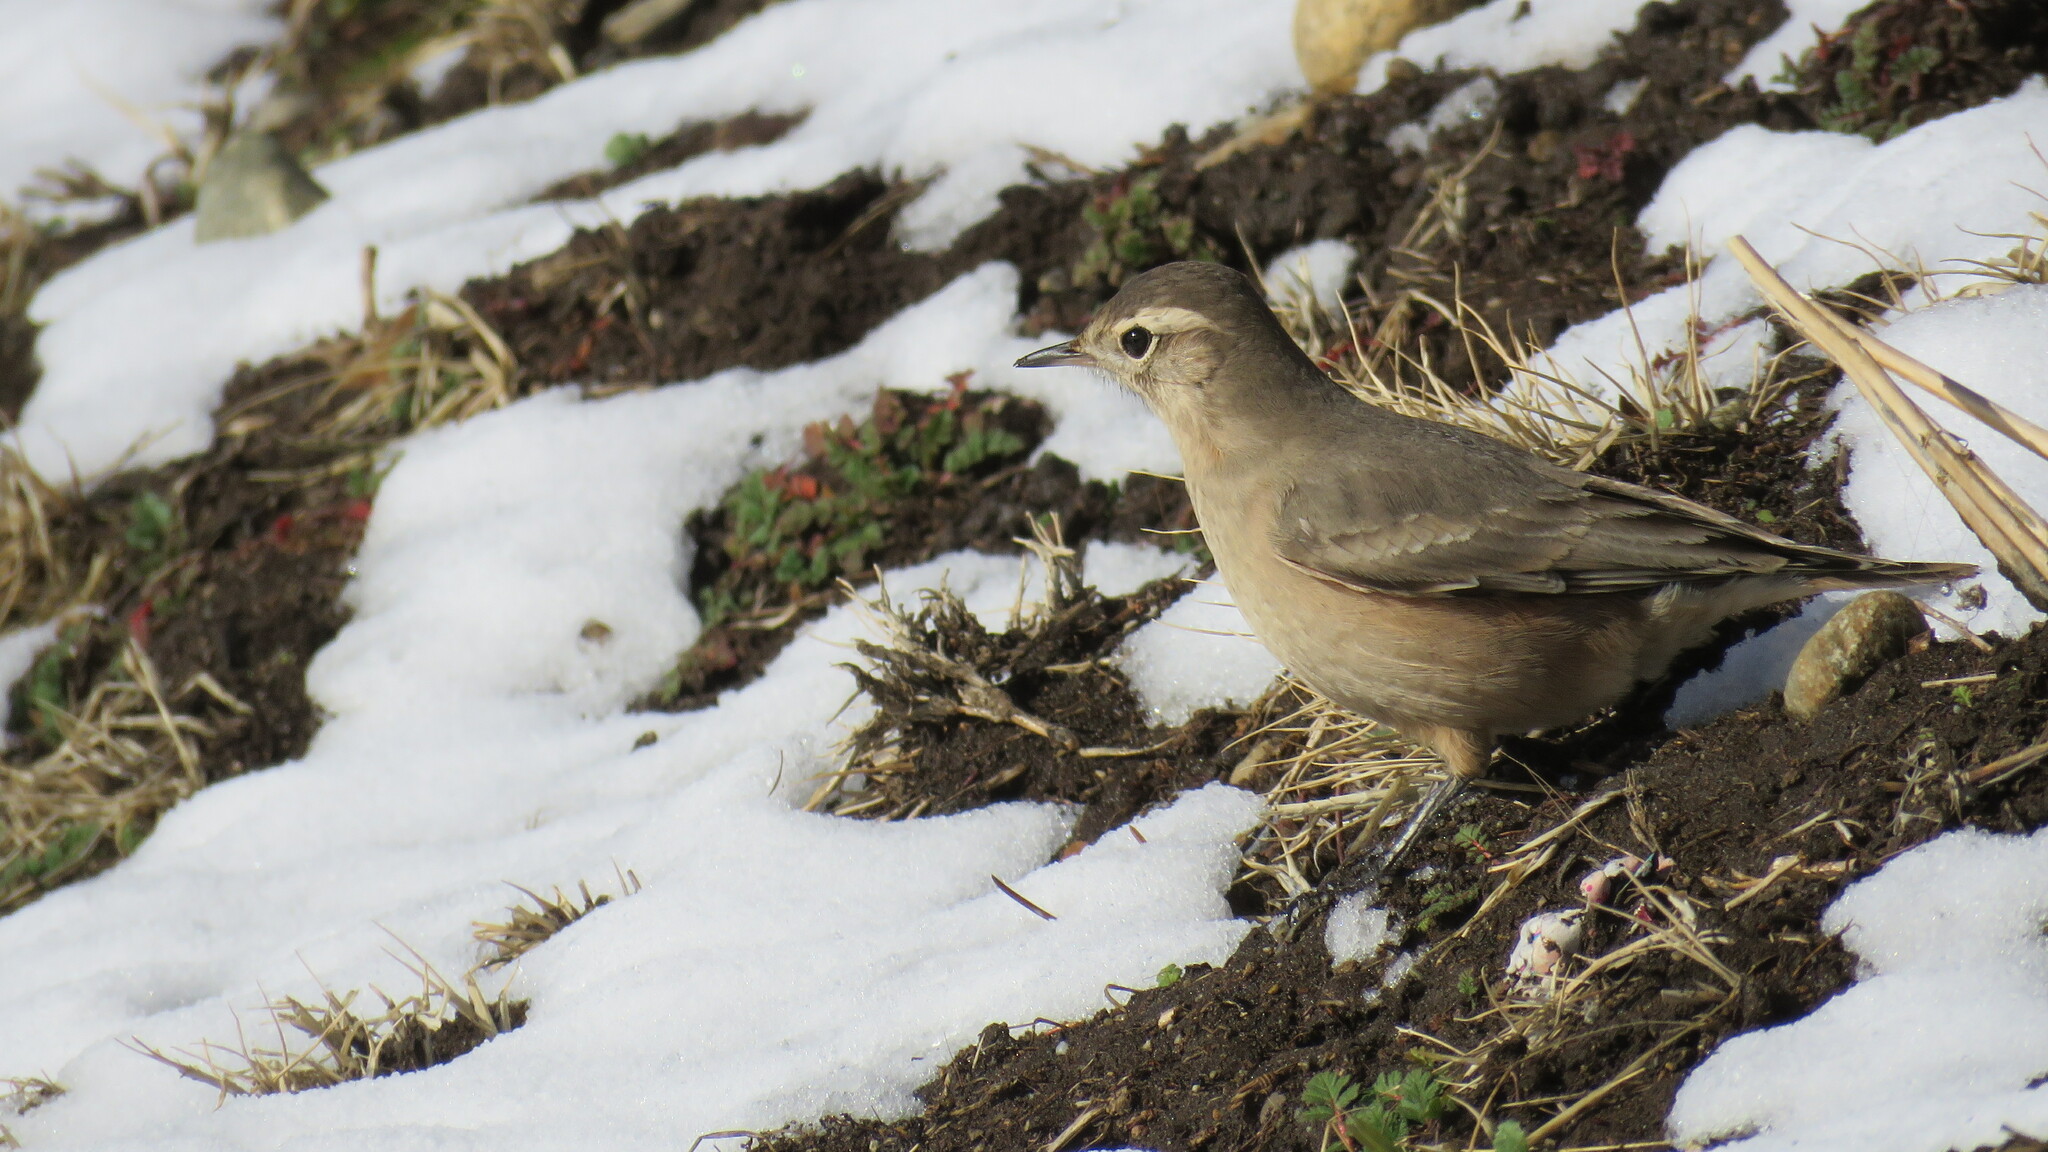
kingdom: Animalia
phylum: Chordata
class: Aves
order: Passeriformes
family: Furnariidae
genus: Geositta
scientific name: Geositta rufipennis
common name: Rufous-banded miner
